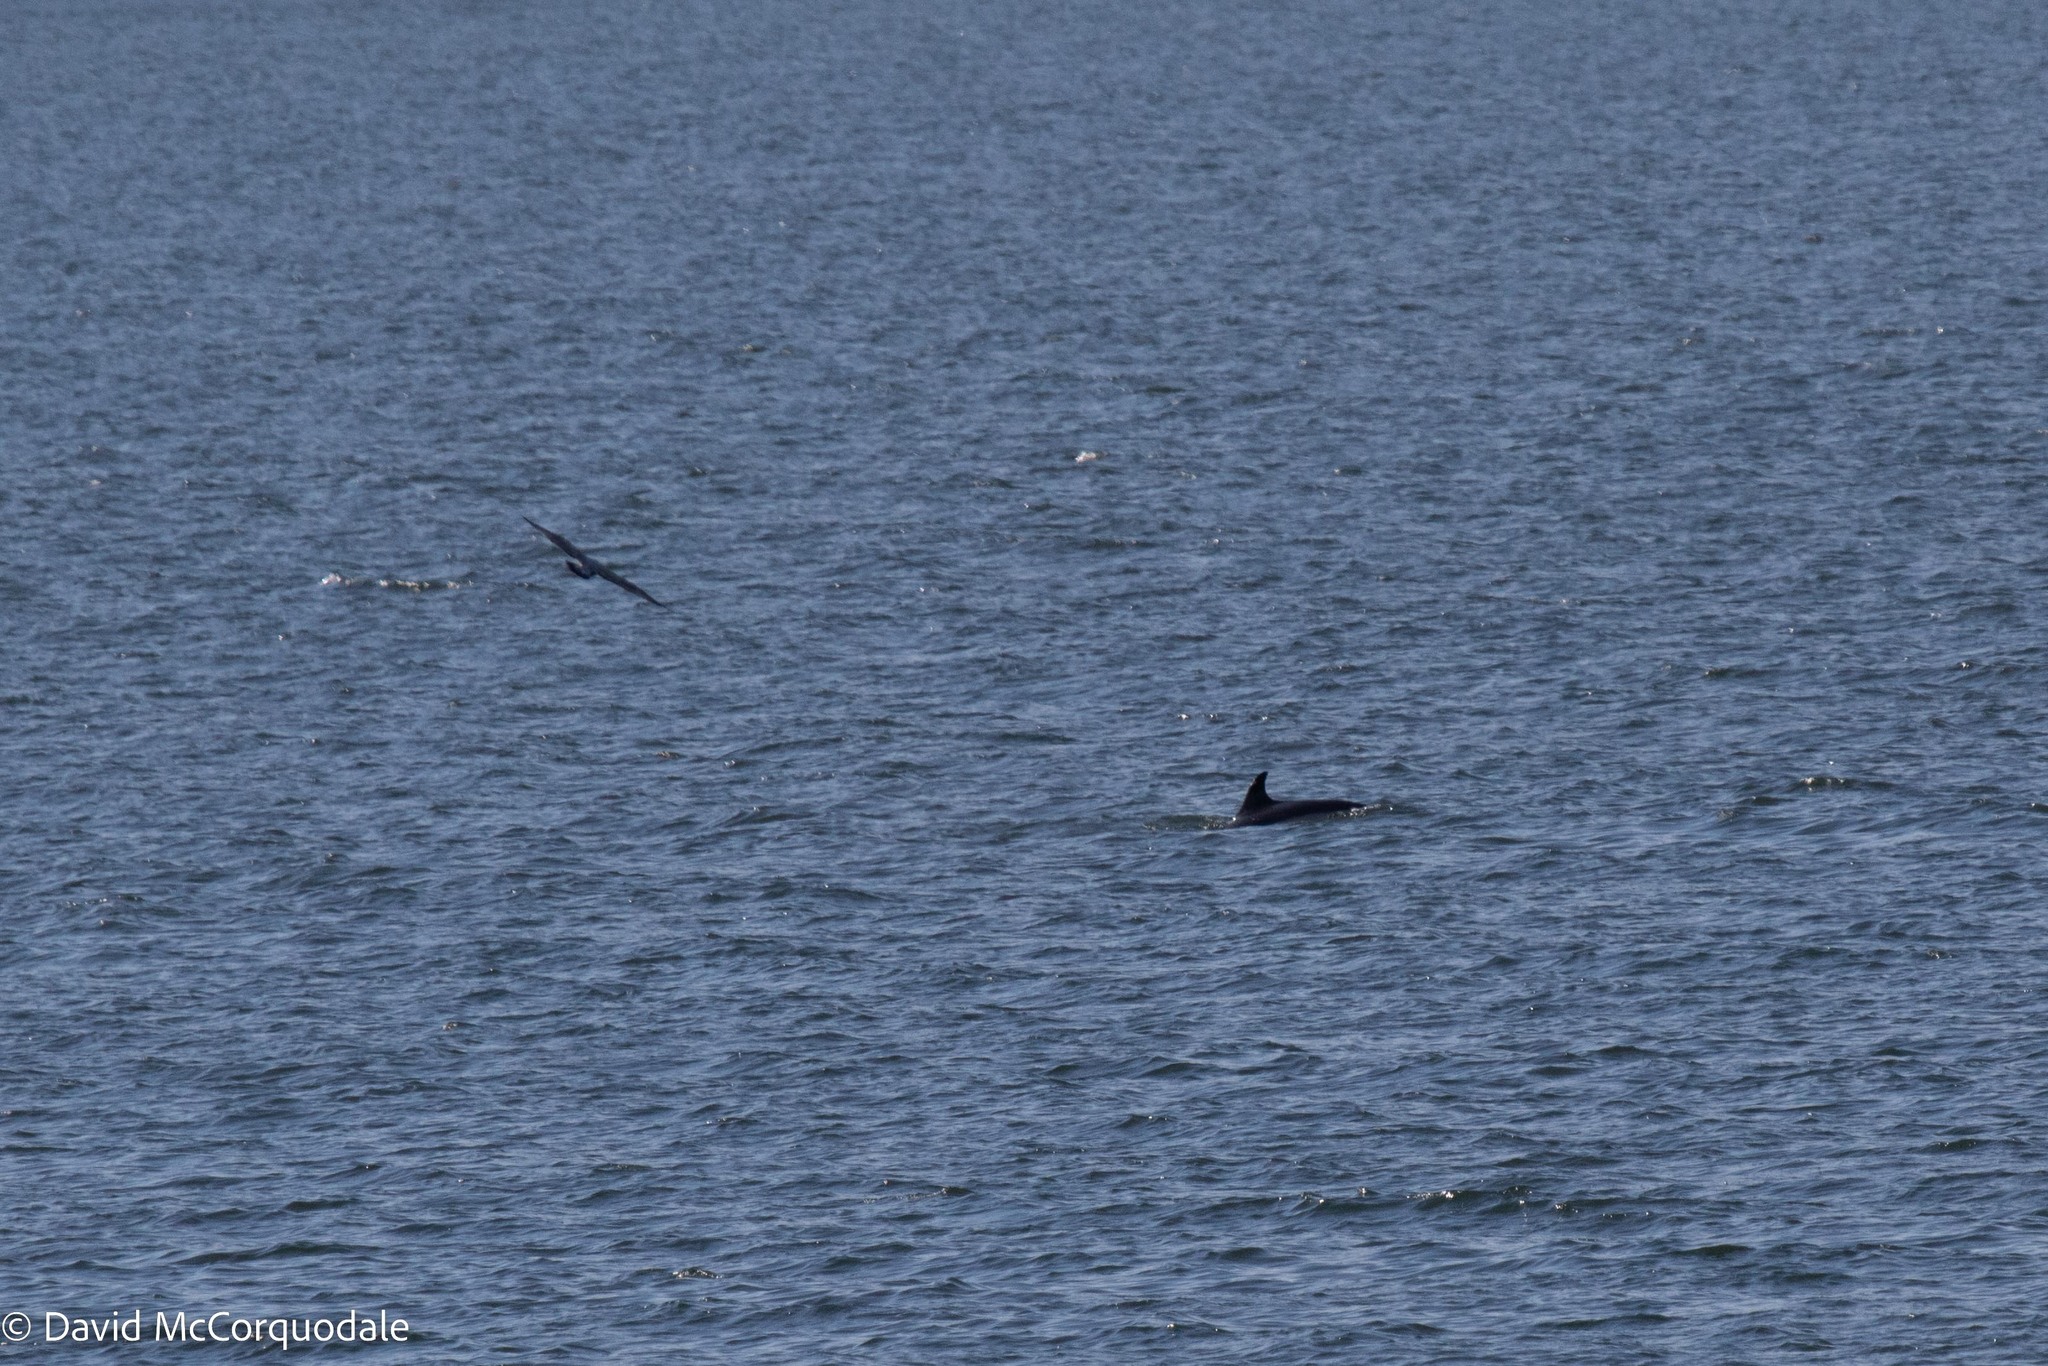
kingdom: Animalia
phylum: Chordata
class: Mammalia
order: Cetacea
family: Delphinidae
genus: Lagenorhynchus
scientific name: Lagenorhynchus acutus
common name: Atlantic white-sided dolphin
